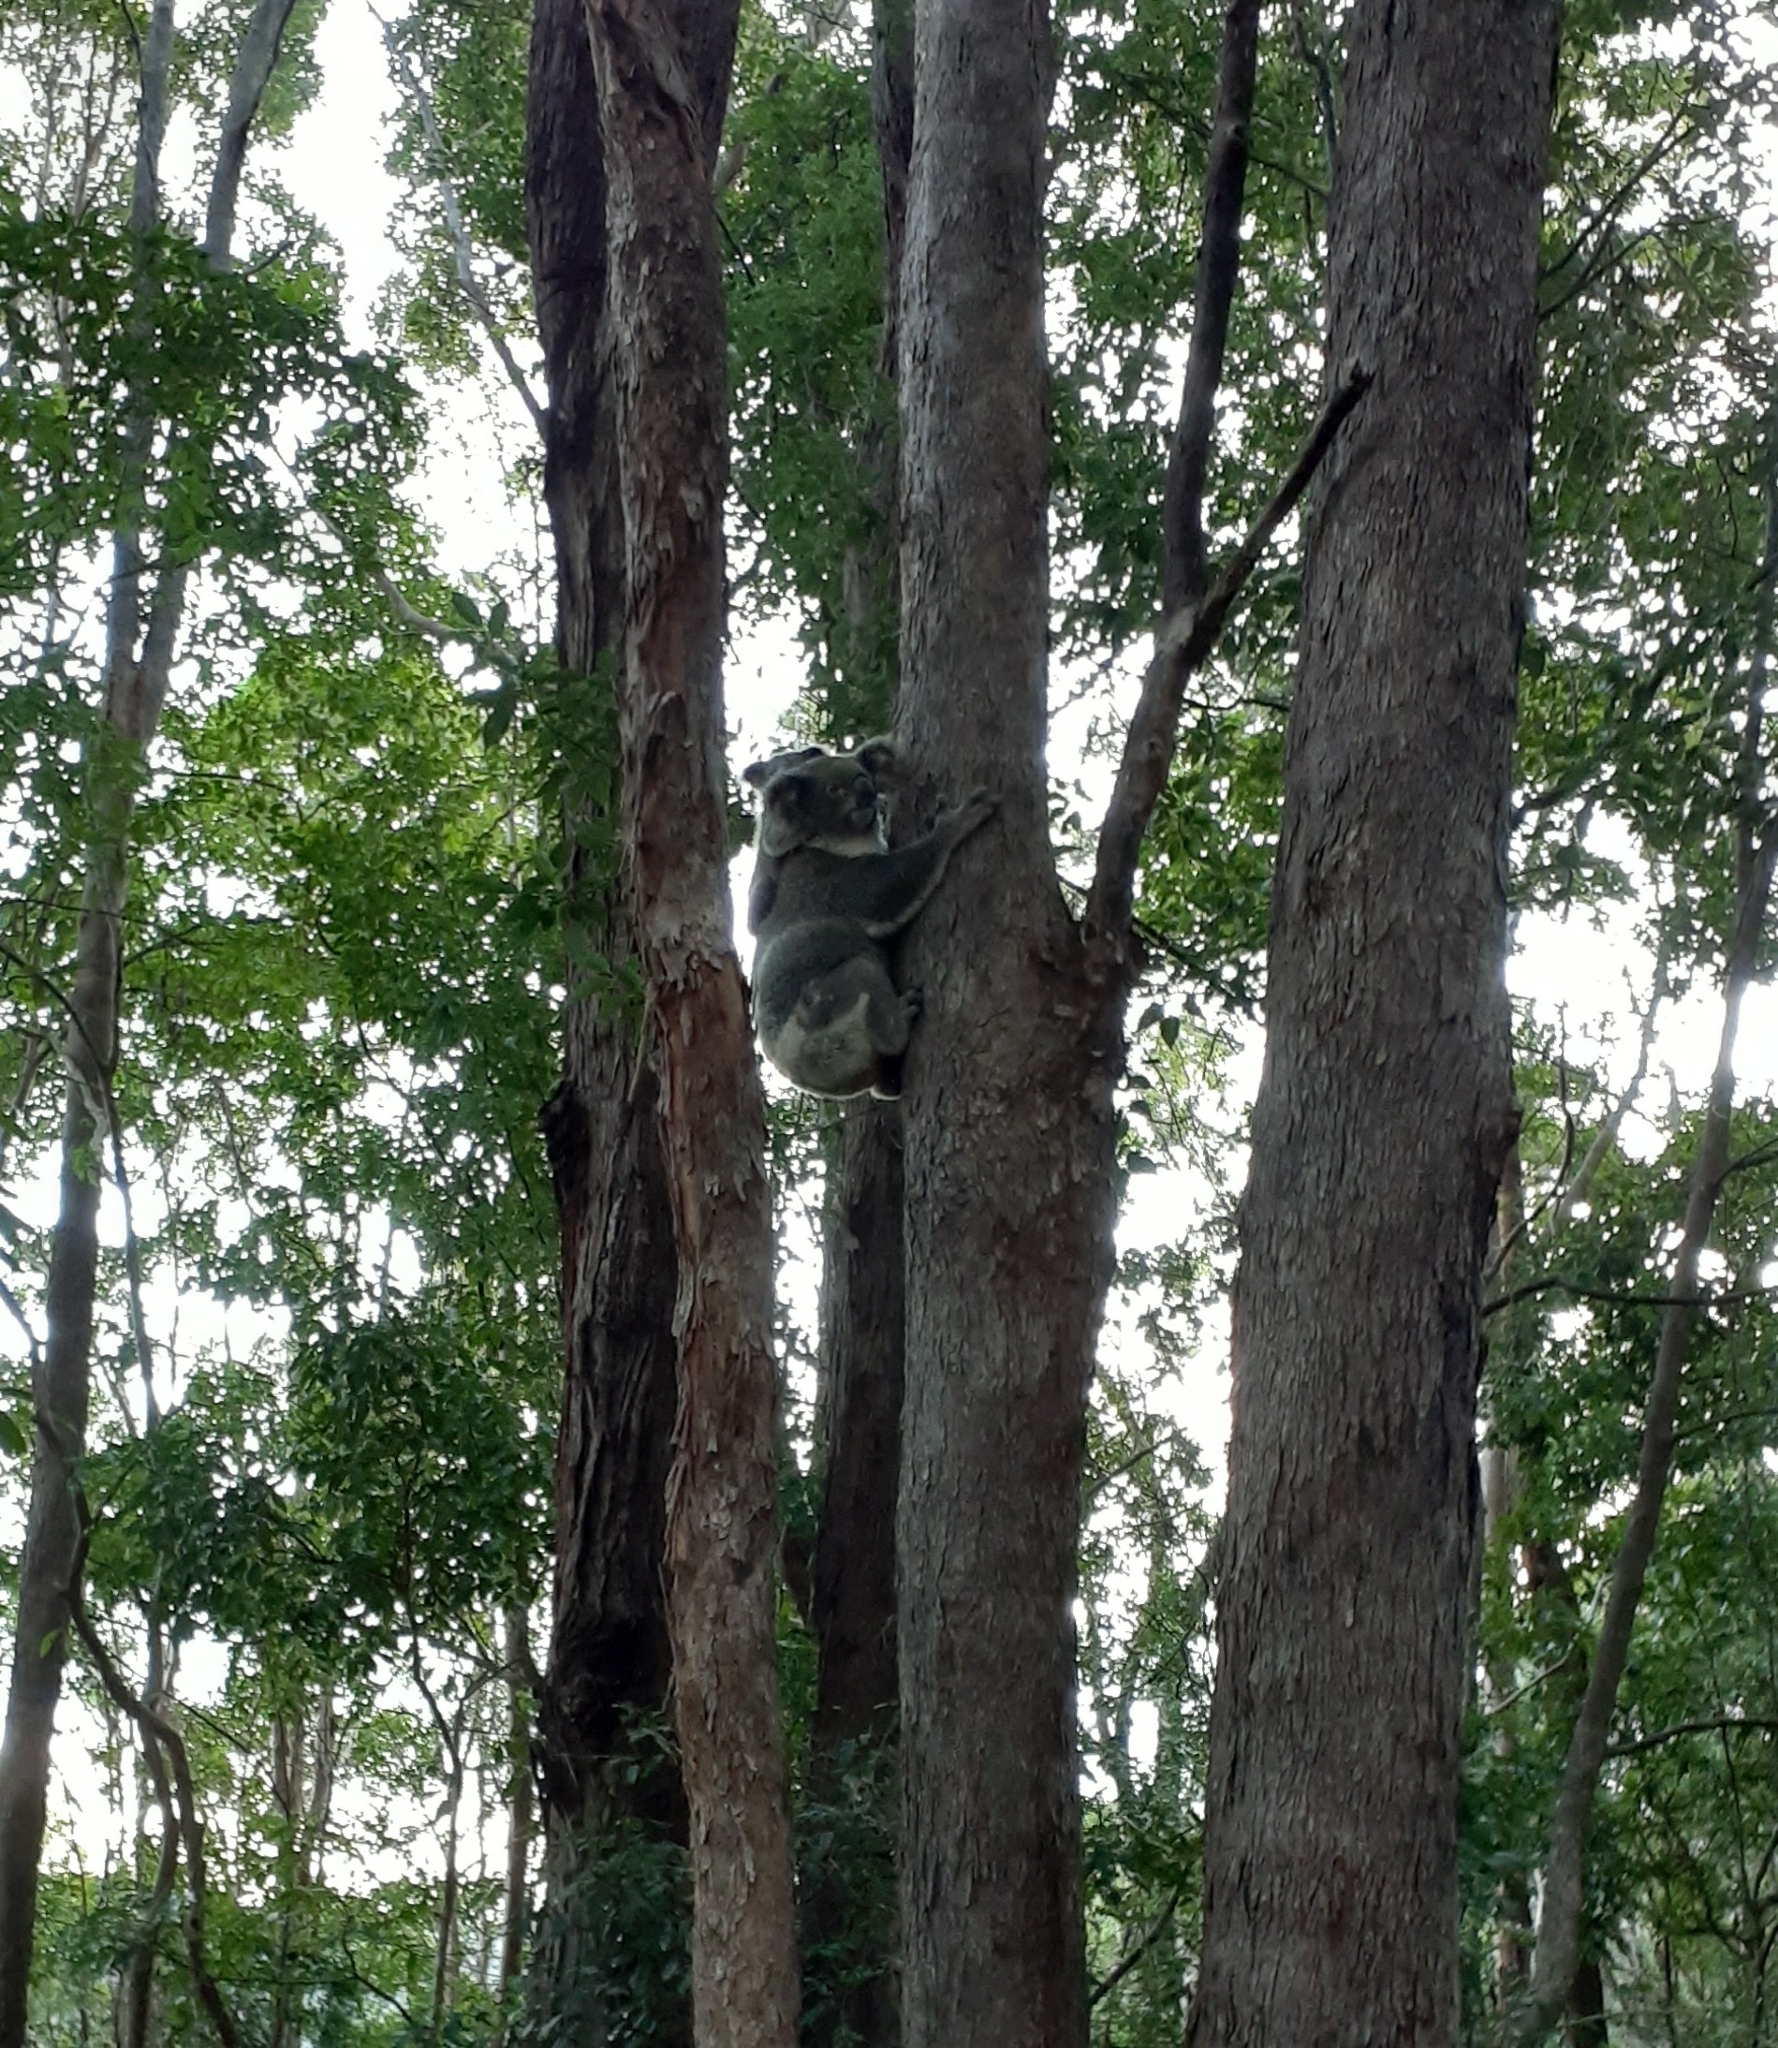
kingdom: Animalia
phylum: Chordata
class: Mammalia
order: Diprotodontia
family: Phascolarctidae
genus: Phascolarctos
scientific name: Phascolarctos cinereus
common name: Koala
